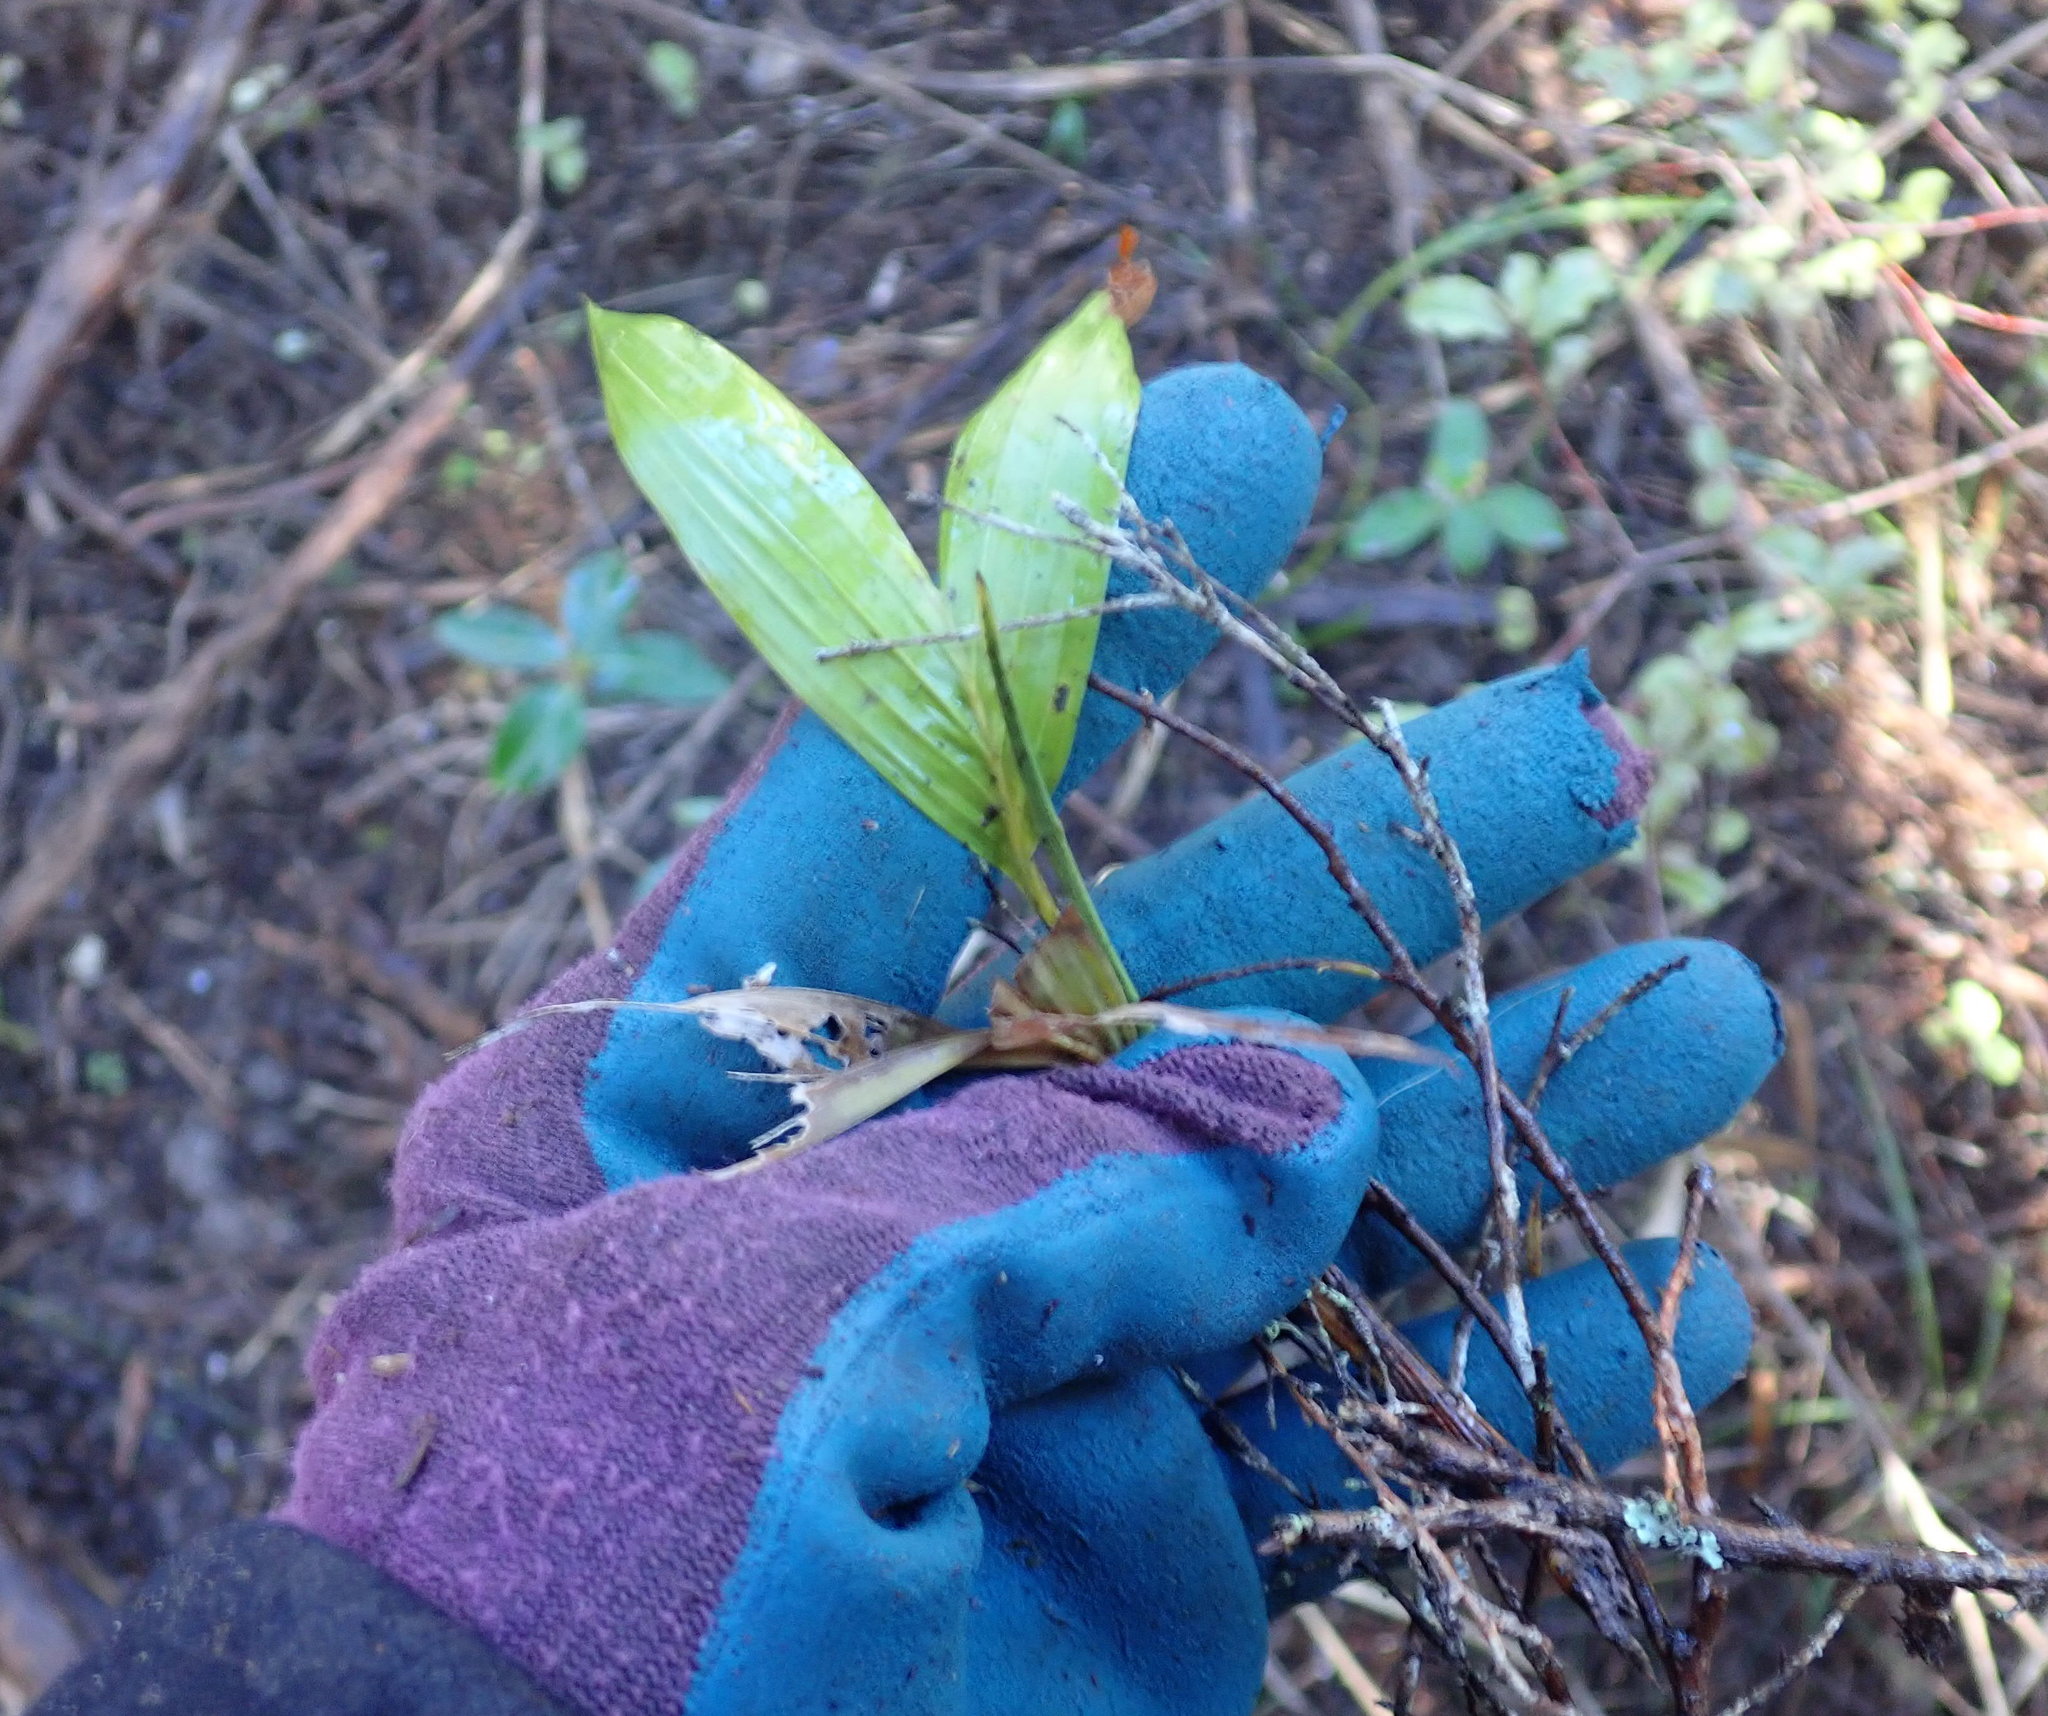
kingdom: Plantae
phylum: Tracheophyta
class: Liliopsida
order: Arecales
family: Arecaceae
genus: Archontophoenix
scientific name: Archontophoenix cunninghamiana
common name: Piccabeen bangalow palm
